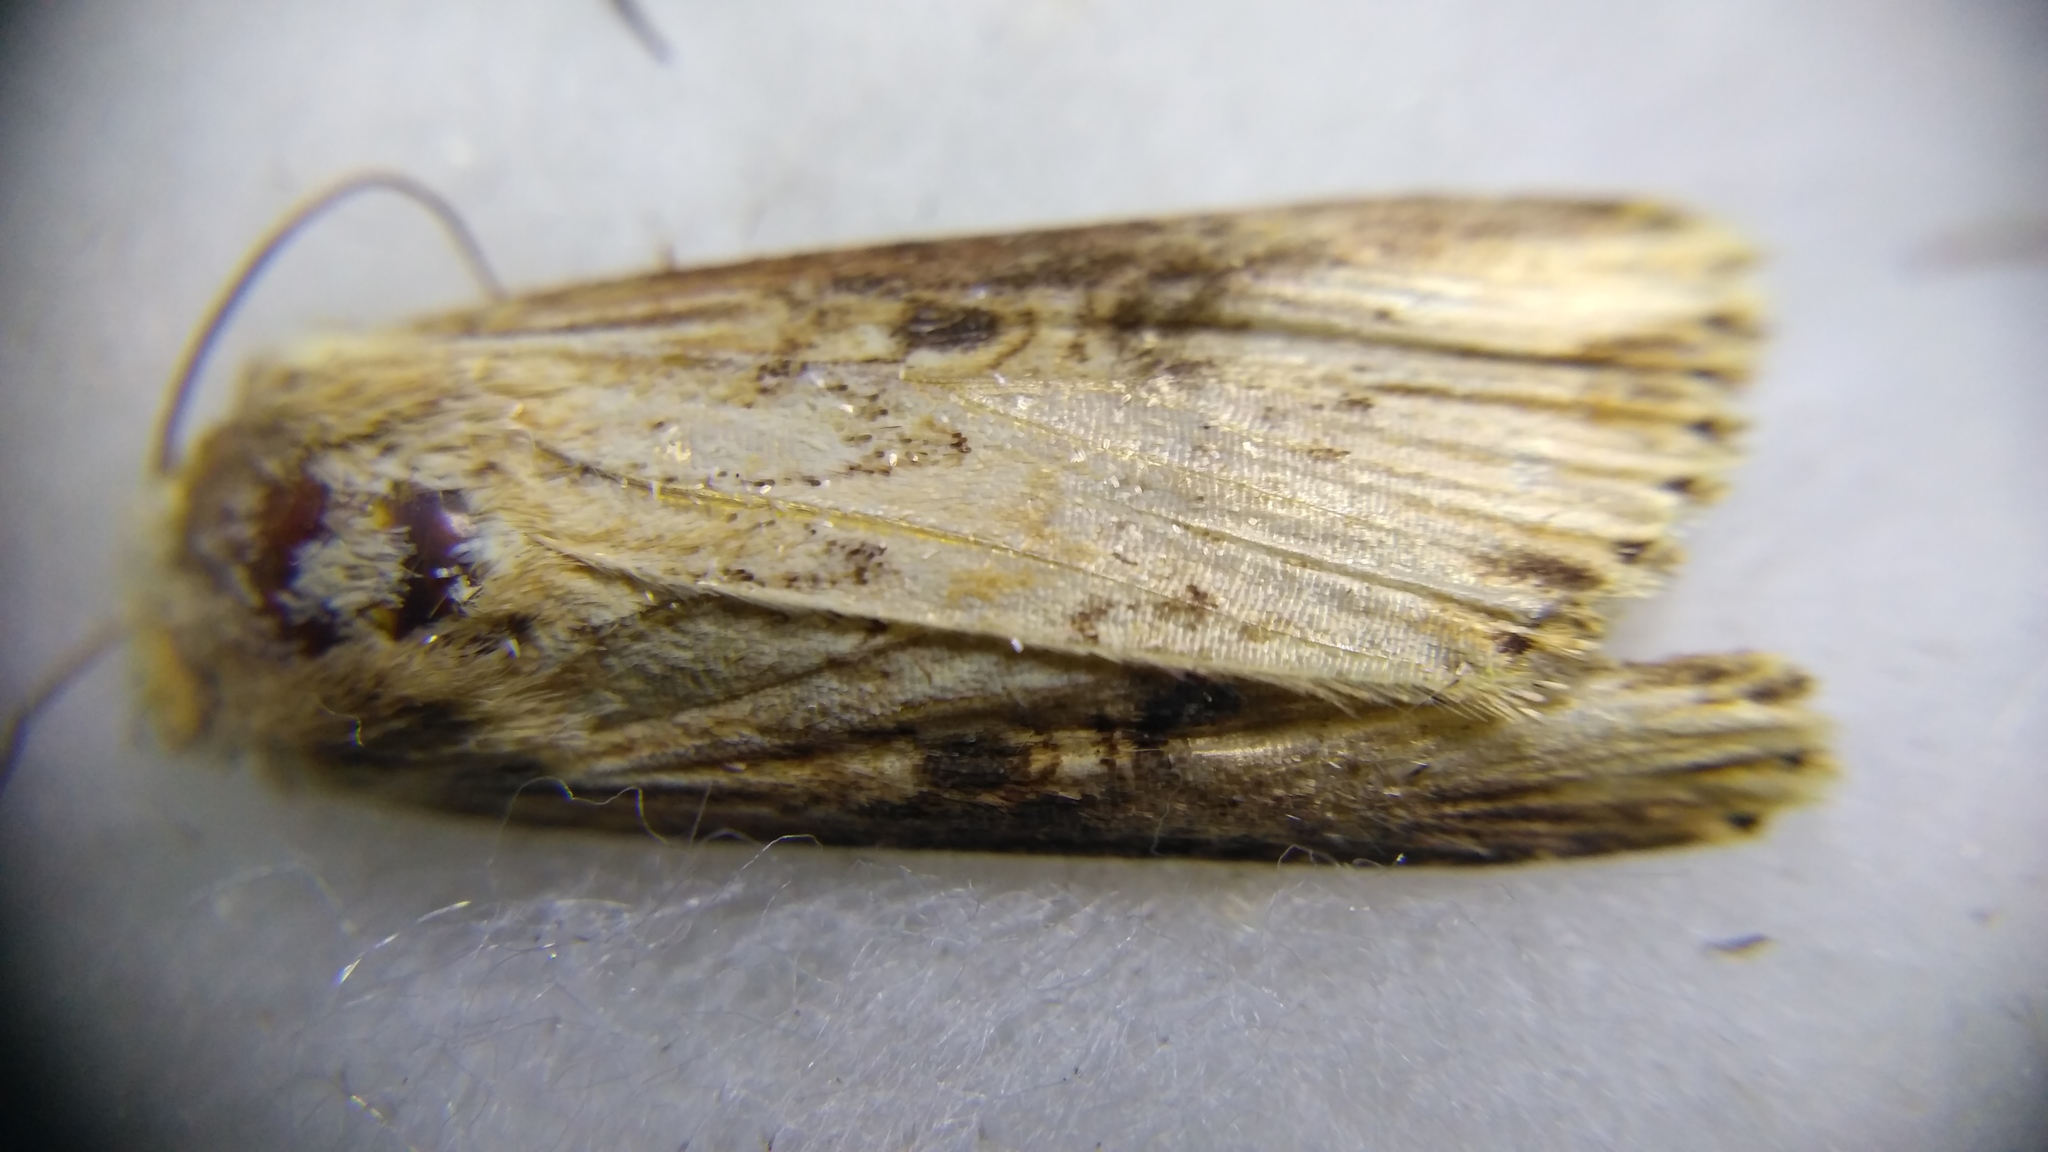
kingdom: Animalia
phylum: Arthropoda
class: Insecta
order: Lepidoptera
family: Noctuidae
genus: Axylia
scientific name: Axylia putris
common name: Flame
